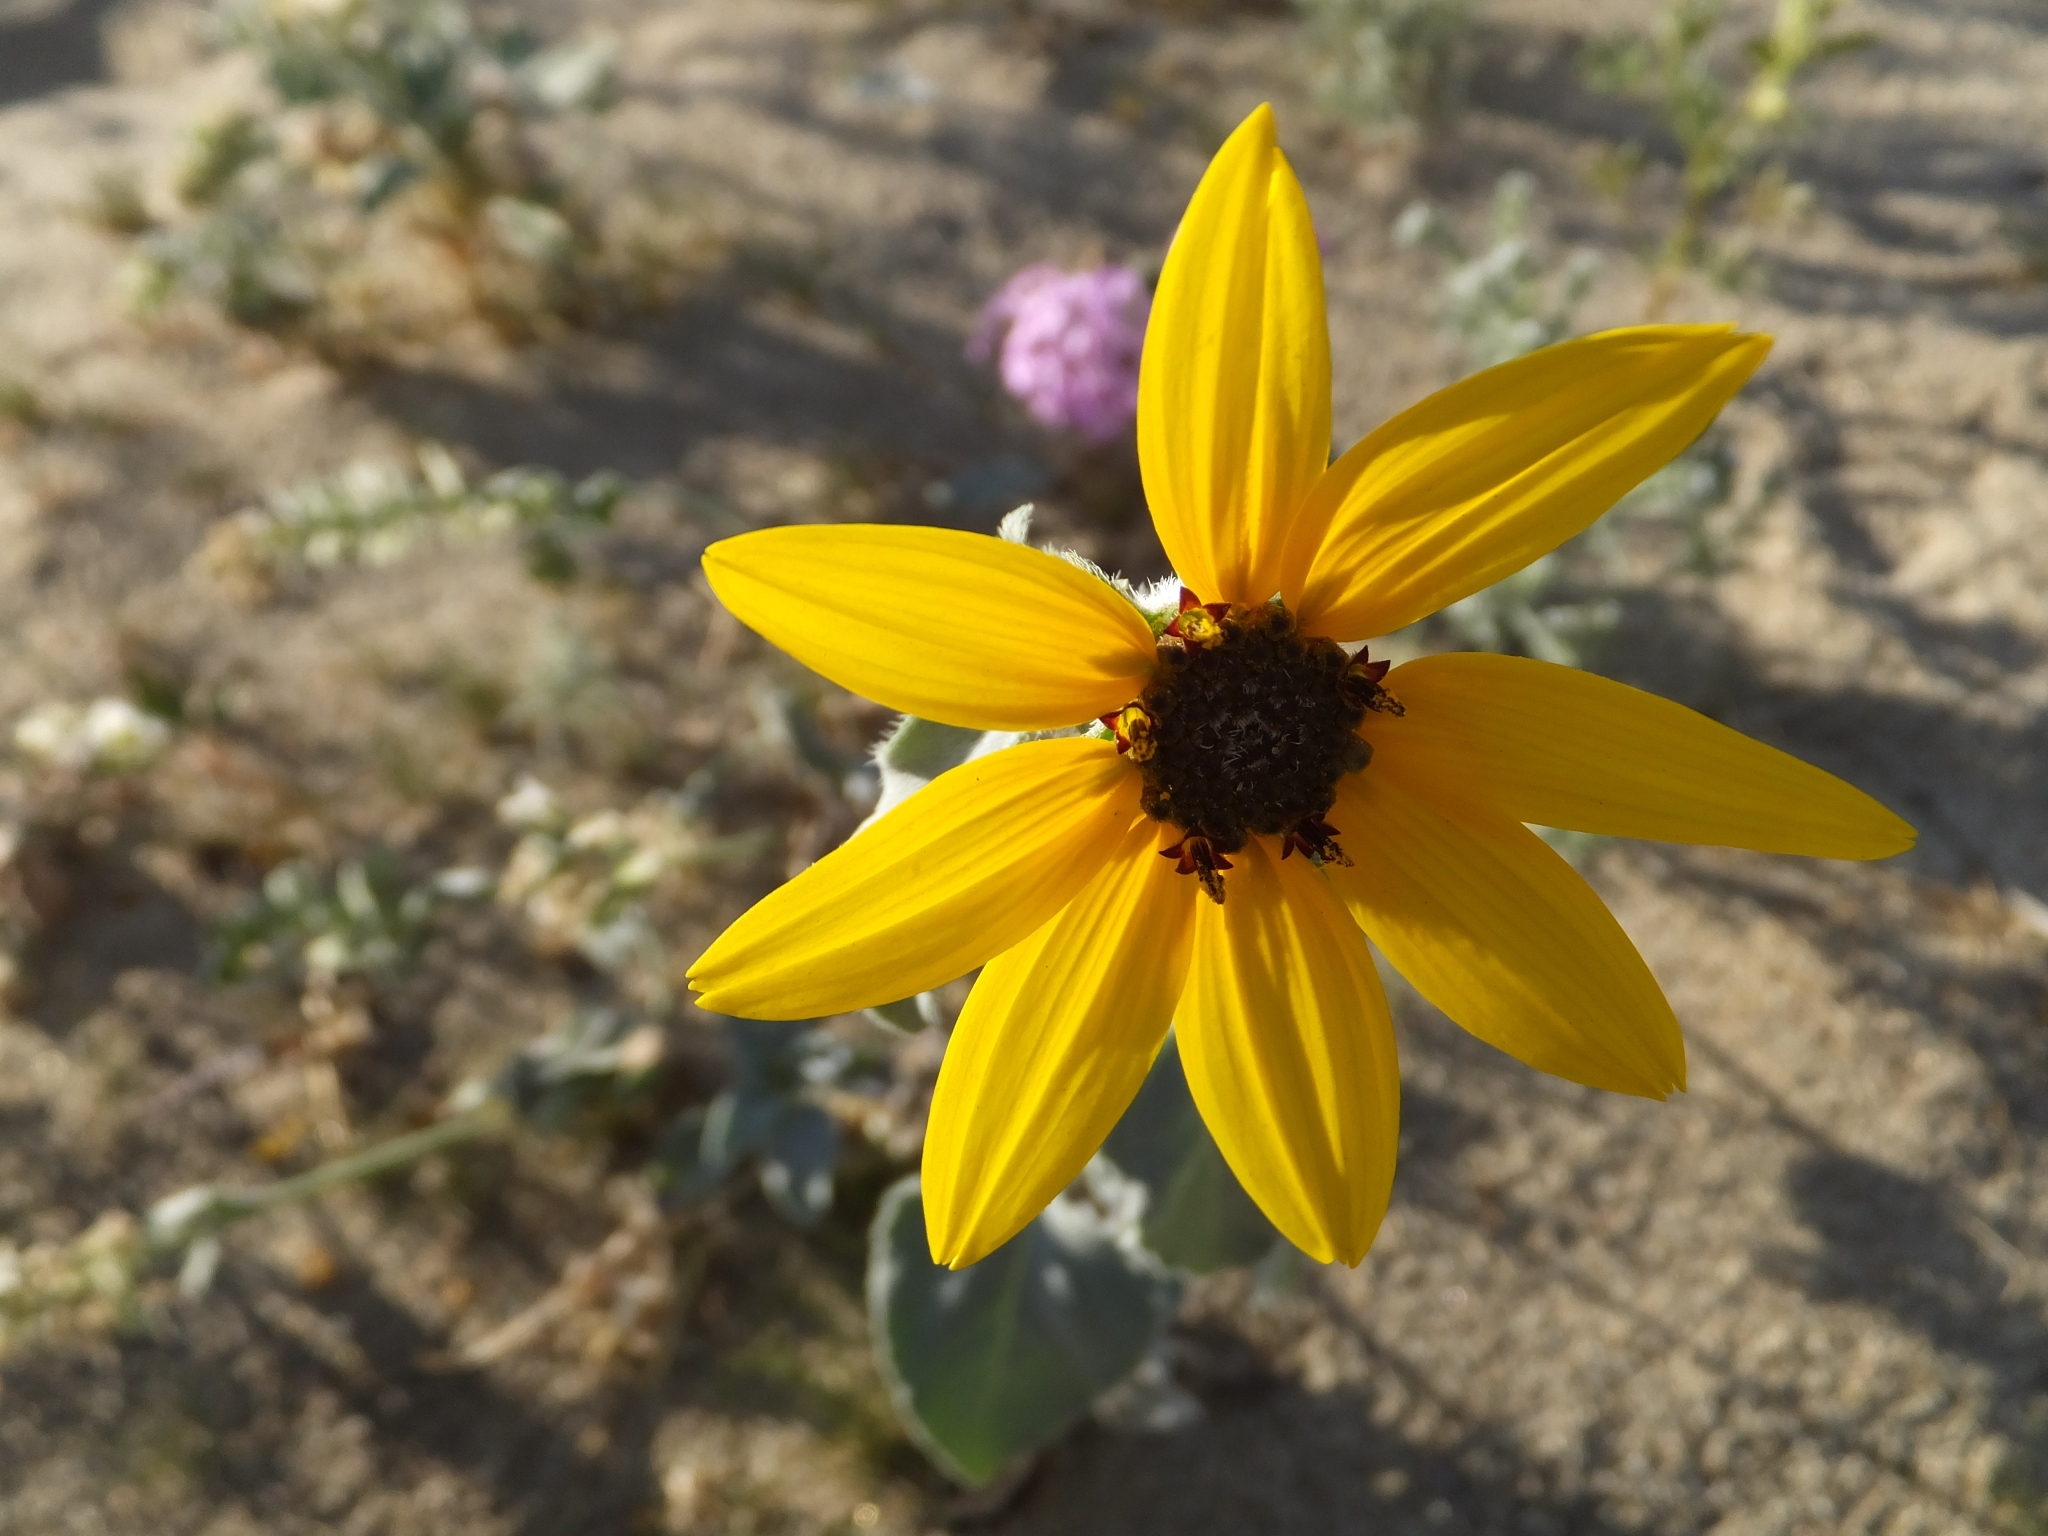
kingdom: Plantae
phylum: Tracheophyta
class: Magnoliopsida
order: Asterales
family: Asteraceae
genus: Helianthus
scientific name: Helianthus petiolaris
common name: Lesser sunflower
